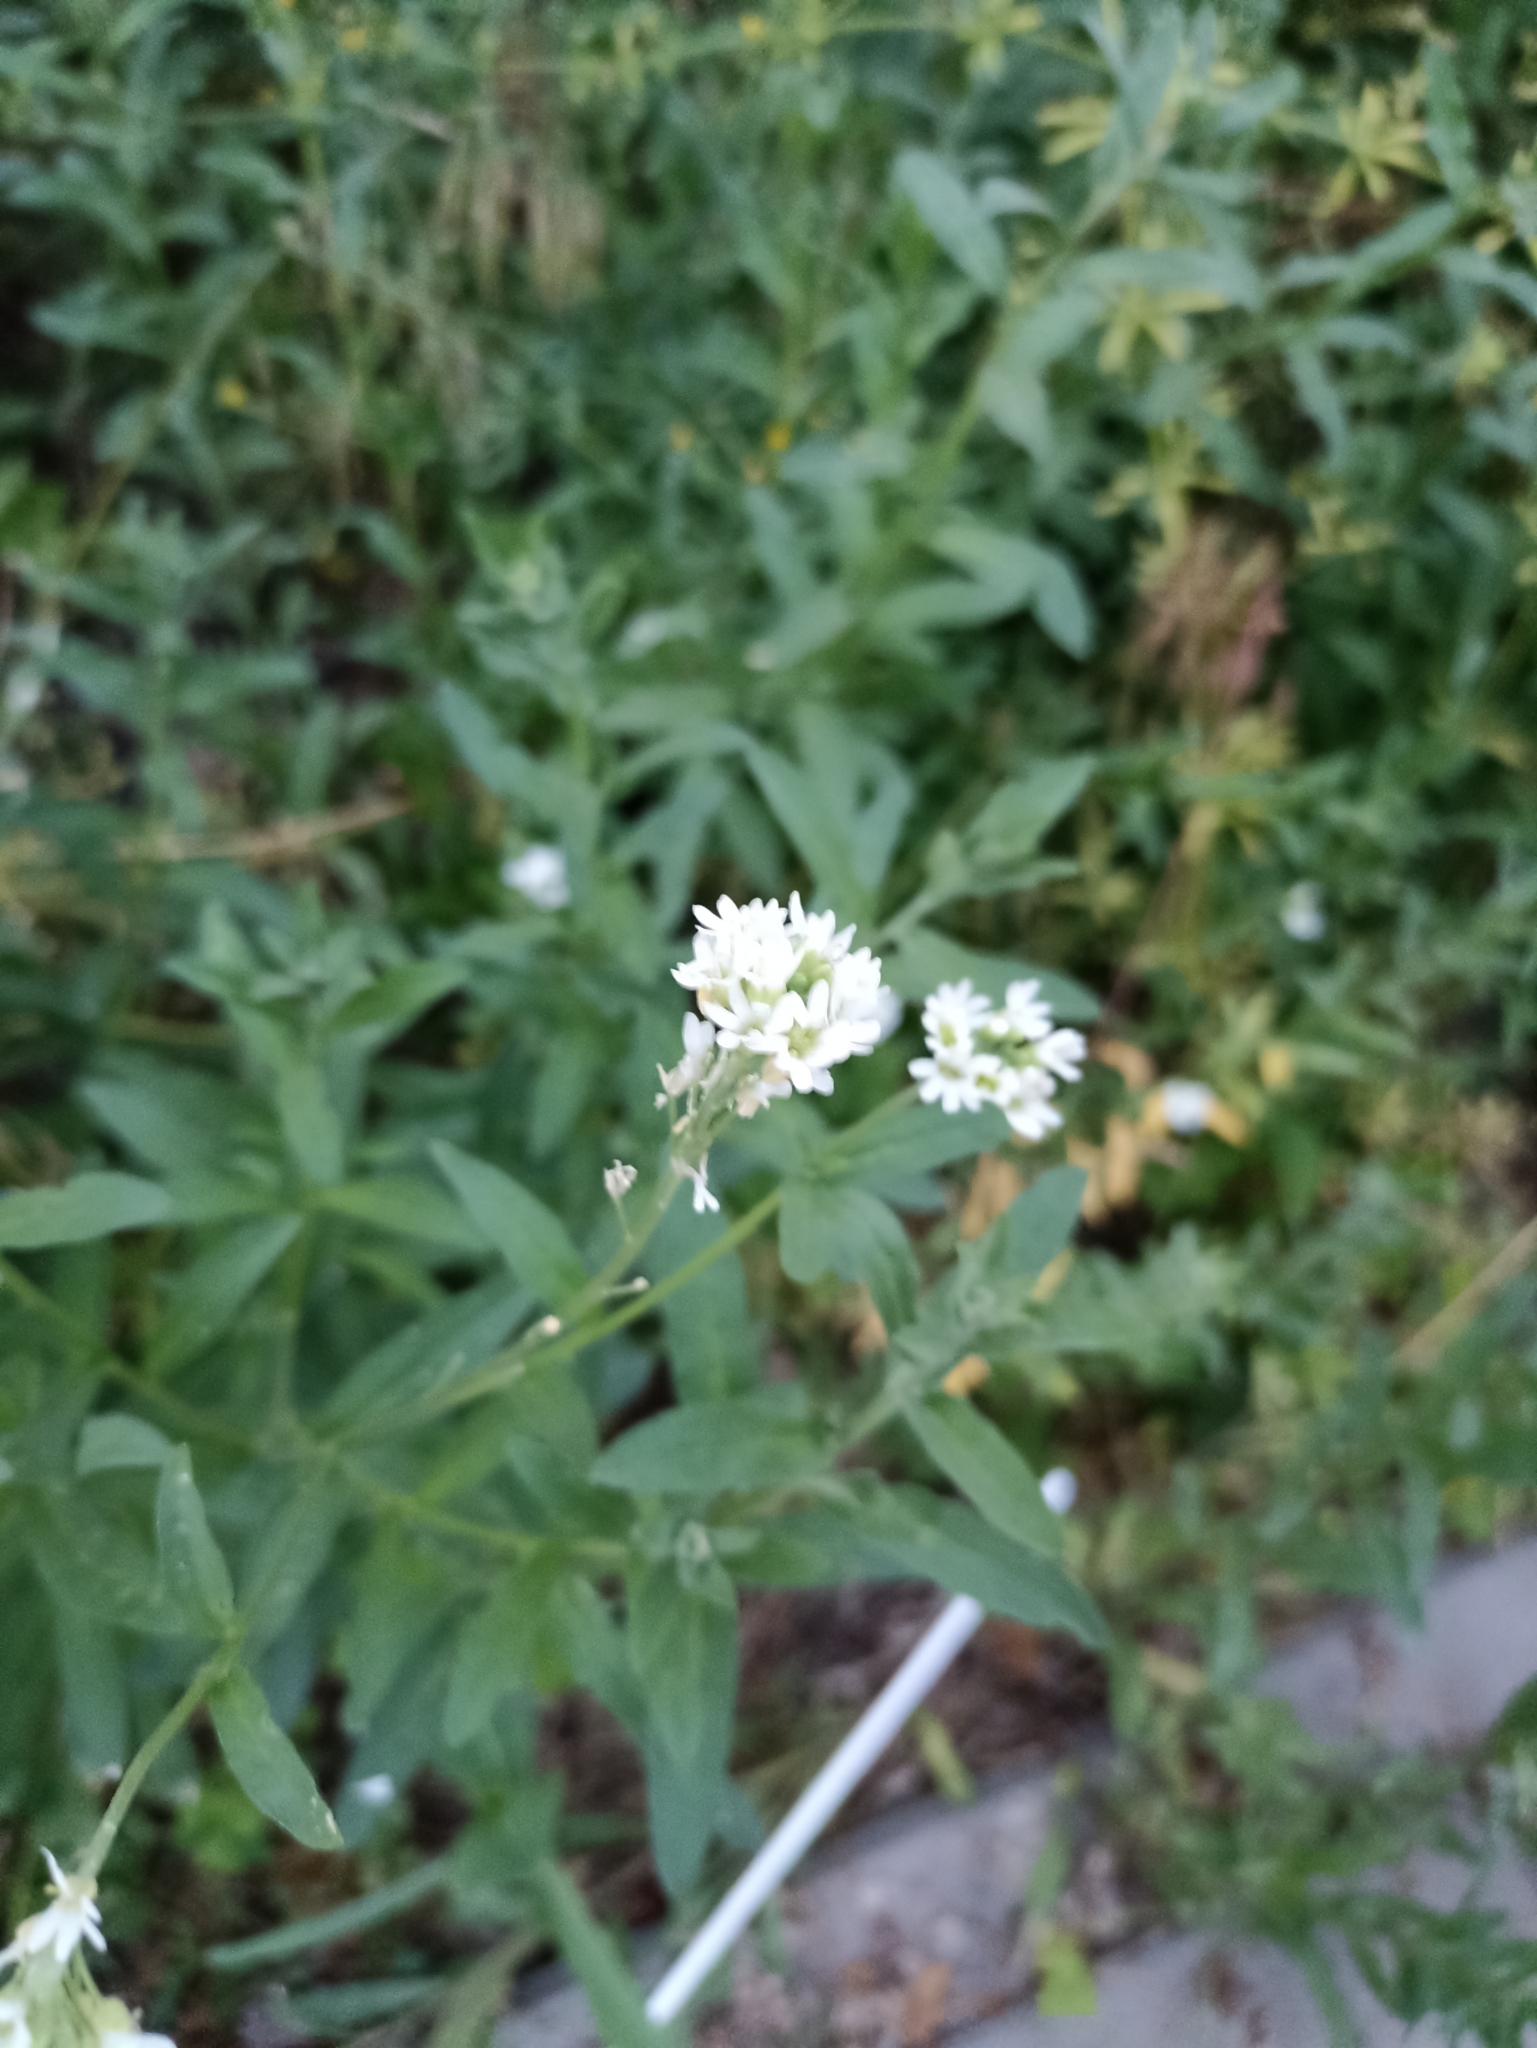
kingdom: Plantae
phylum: Tracheophyta
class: Magnoliopsida
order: Brassicales
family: Brassicaceae
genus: Berteroa
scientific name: Berteroa incana
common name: Hoary alison
